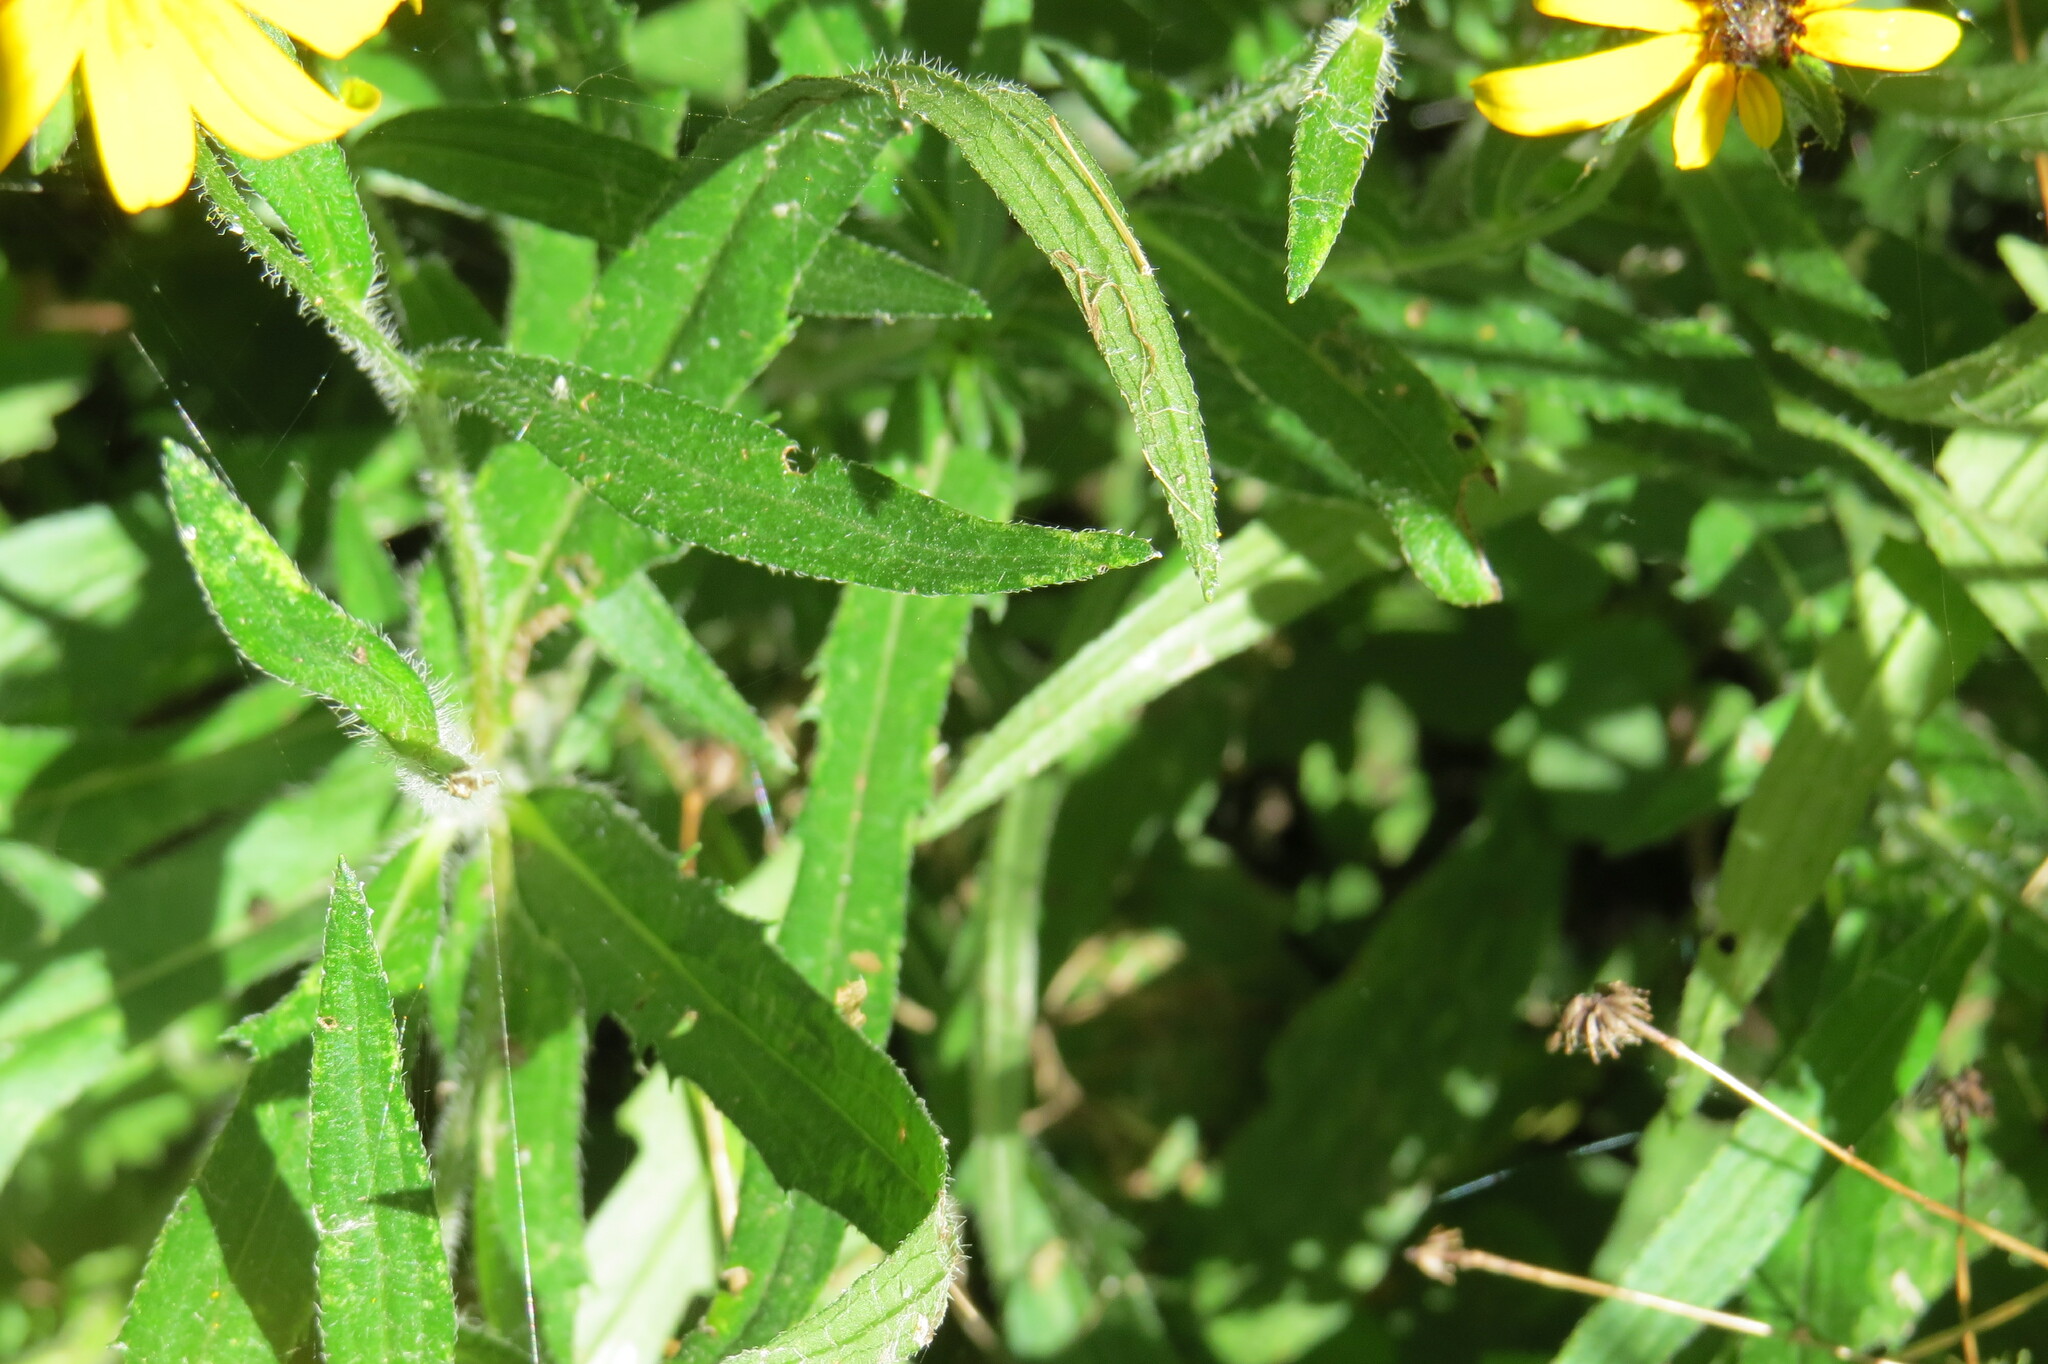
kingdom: Plantae
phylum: Tracheophyta
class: Magnoliopsida
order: Asterales
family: Asteraceae
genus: Rudbeckia
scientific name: Rudbeckia hirta
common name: Black-eyed-susan
